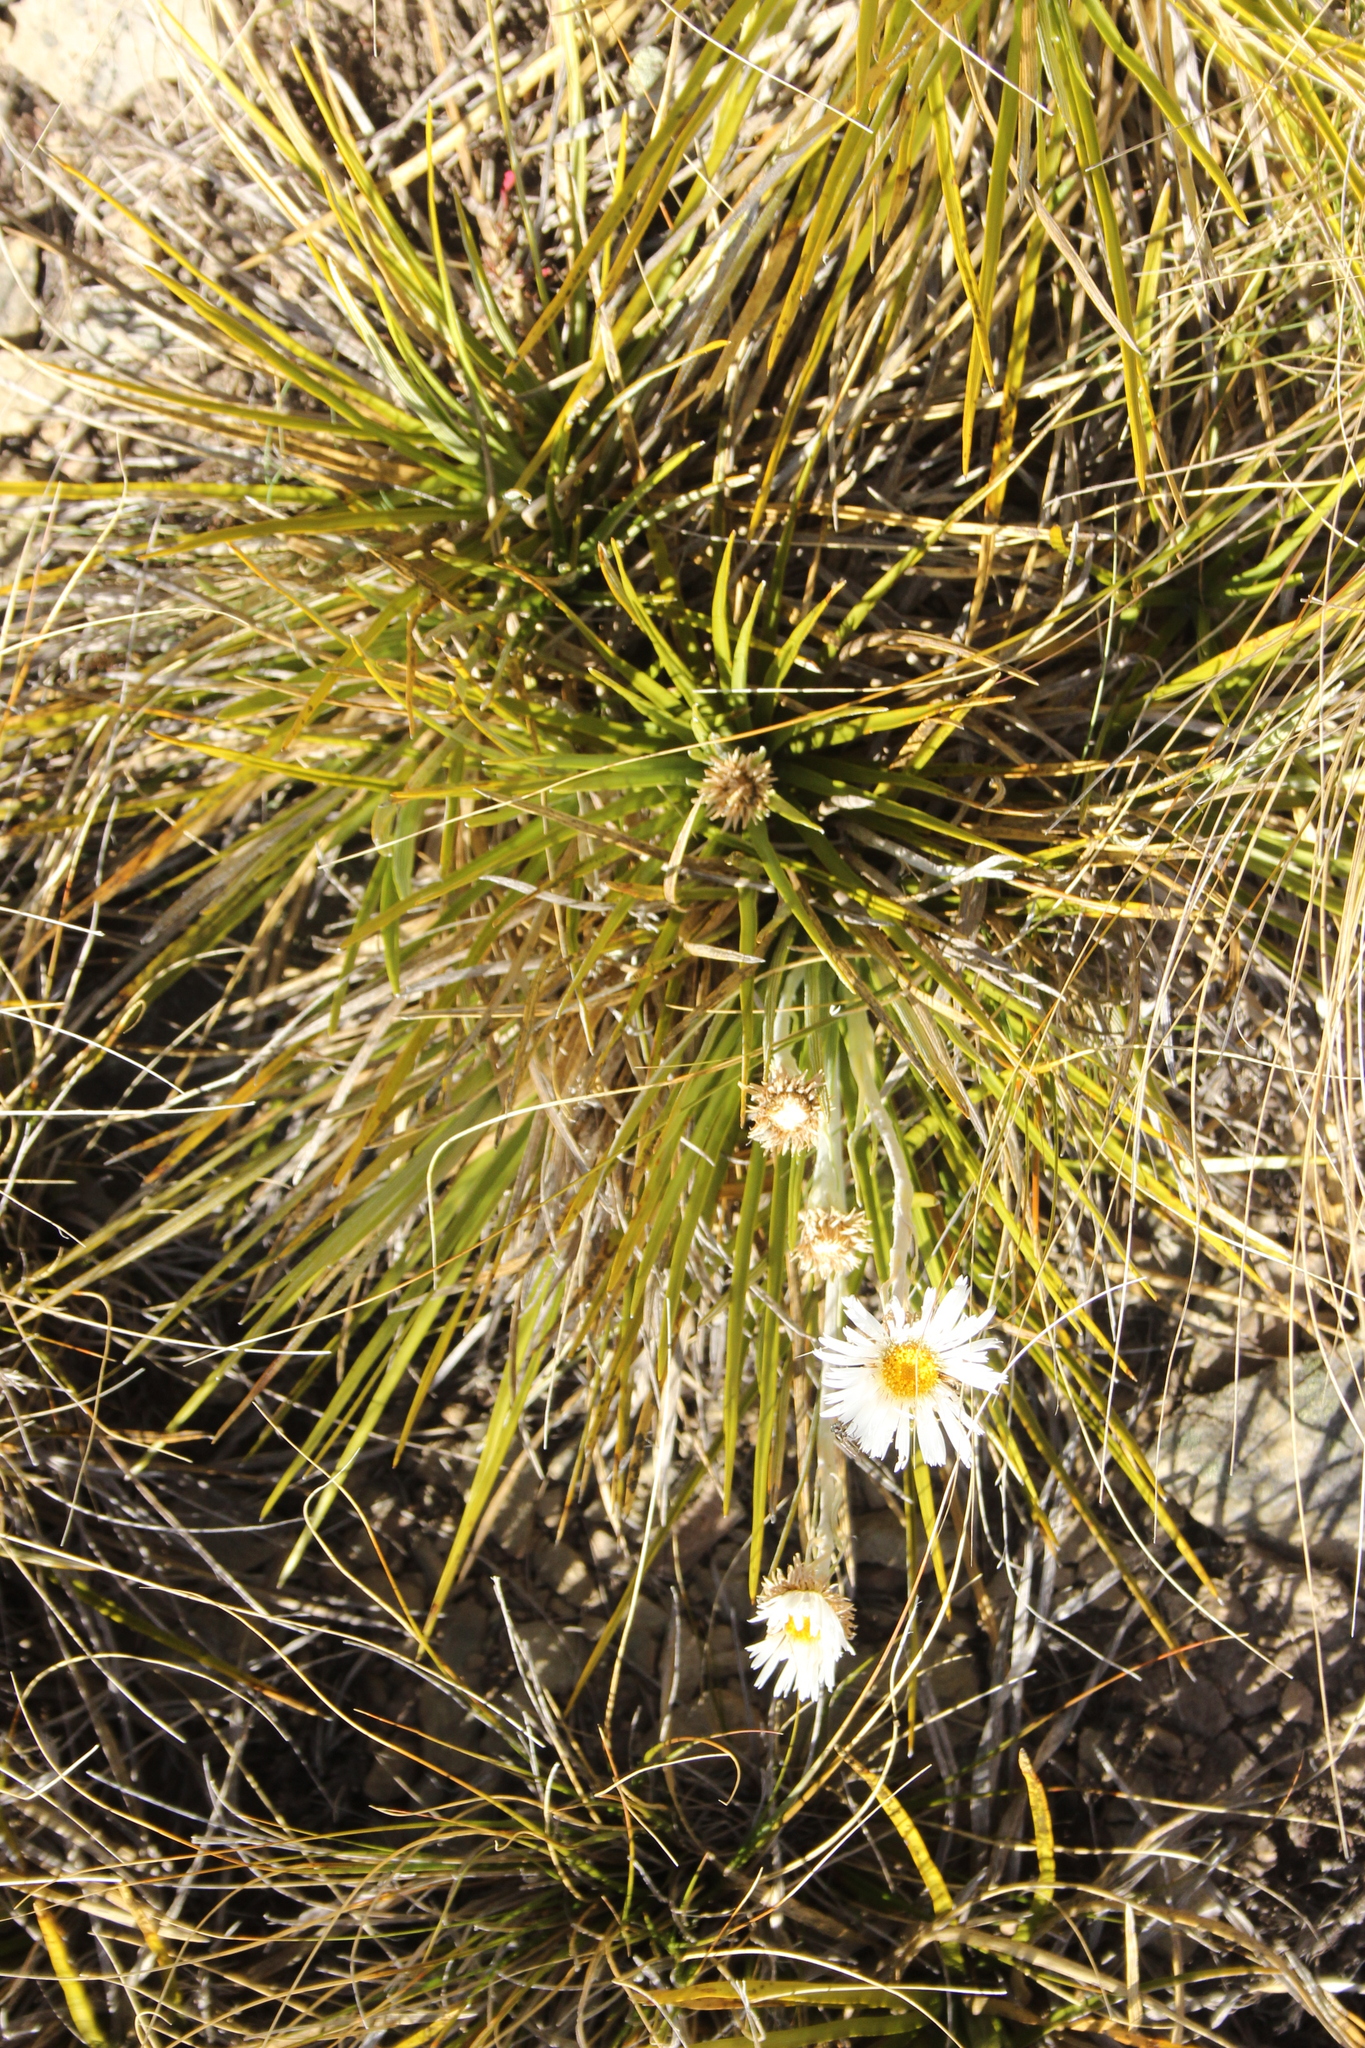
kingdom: Plantae
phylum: Tracheophyta
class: Magnoliopsida
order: Asterales
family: Asteraceae
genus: Celmisia
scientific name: Celmisia lyallii
